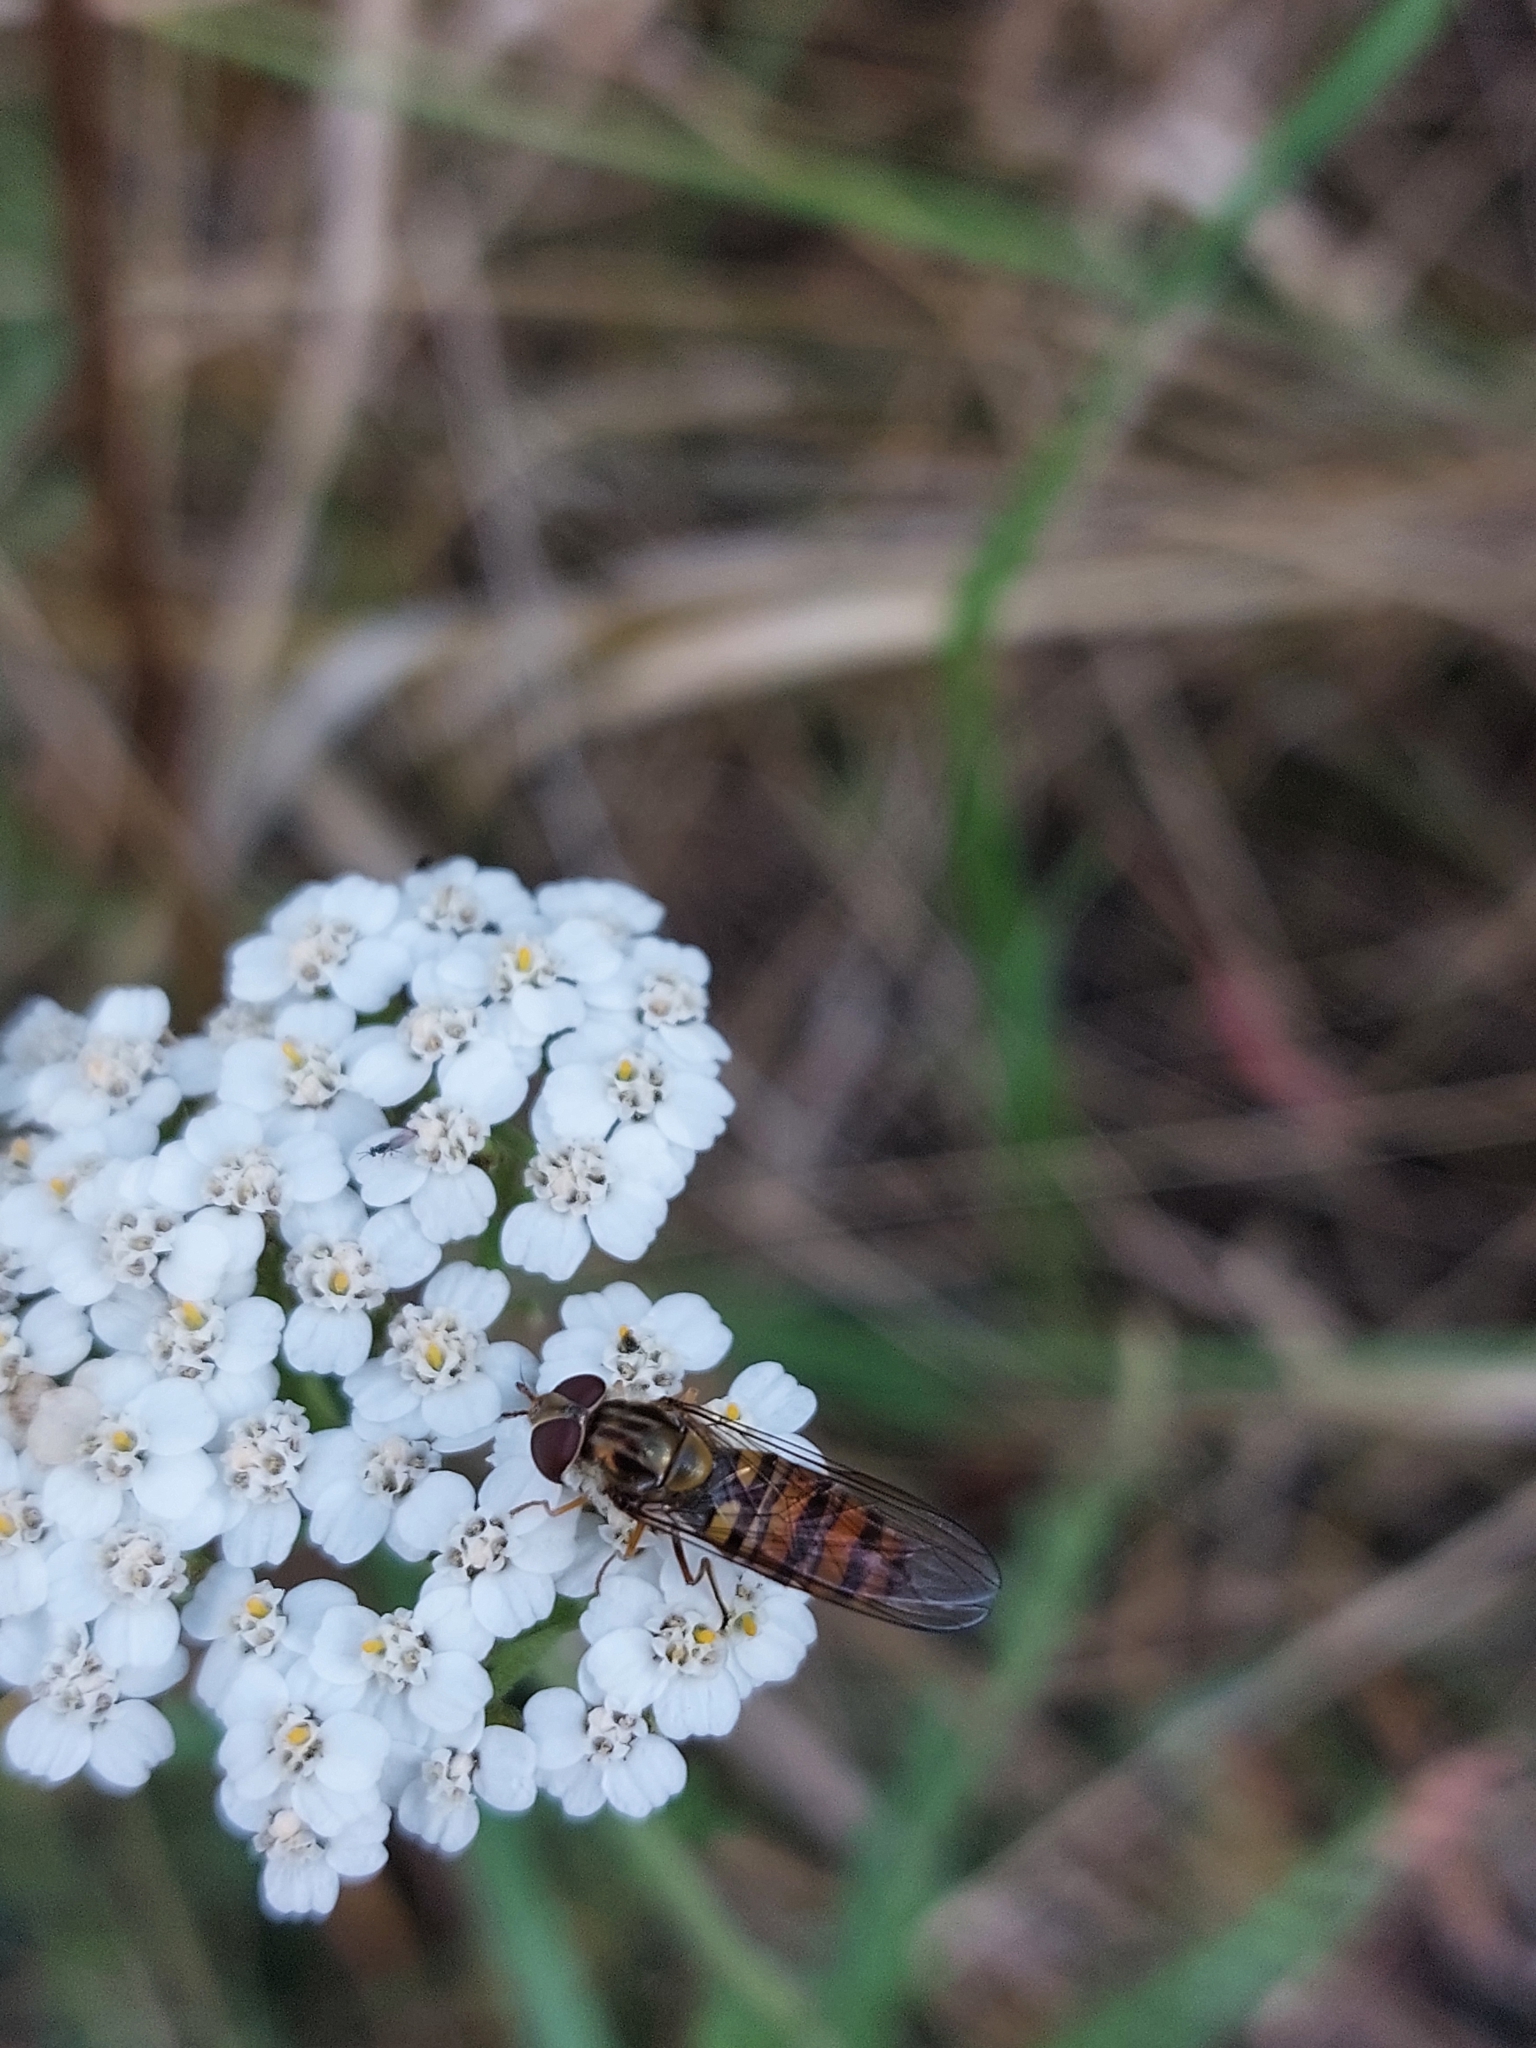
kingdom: Animalia
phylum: Arthropoda
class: Insecta
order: Diptera
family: Syrphidae
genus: Episyrphus
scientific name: Episyrphus balteatus
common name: Marmalade hoverfly
